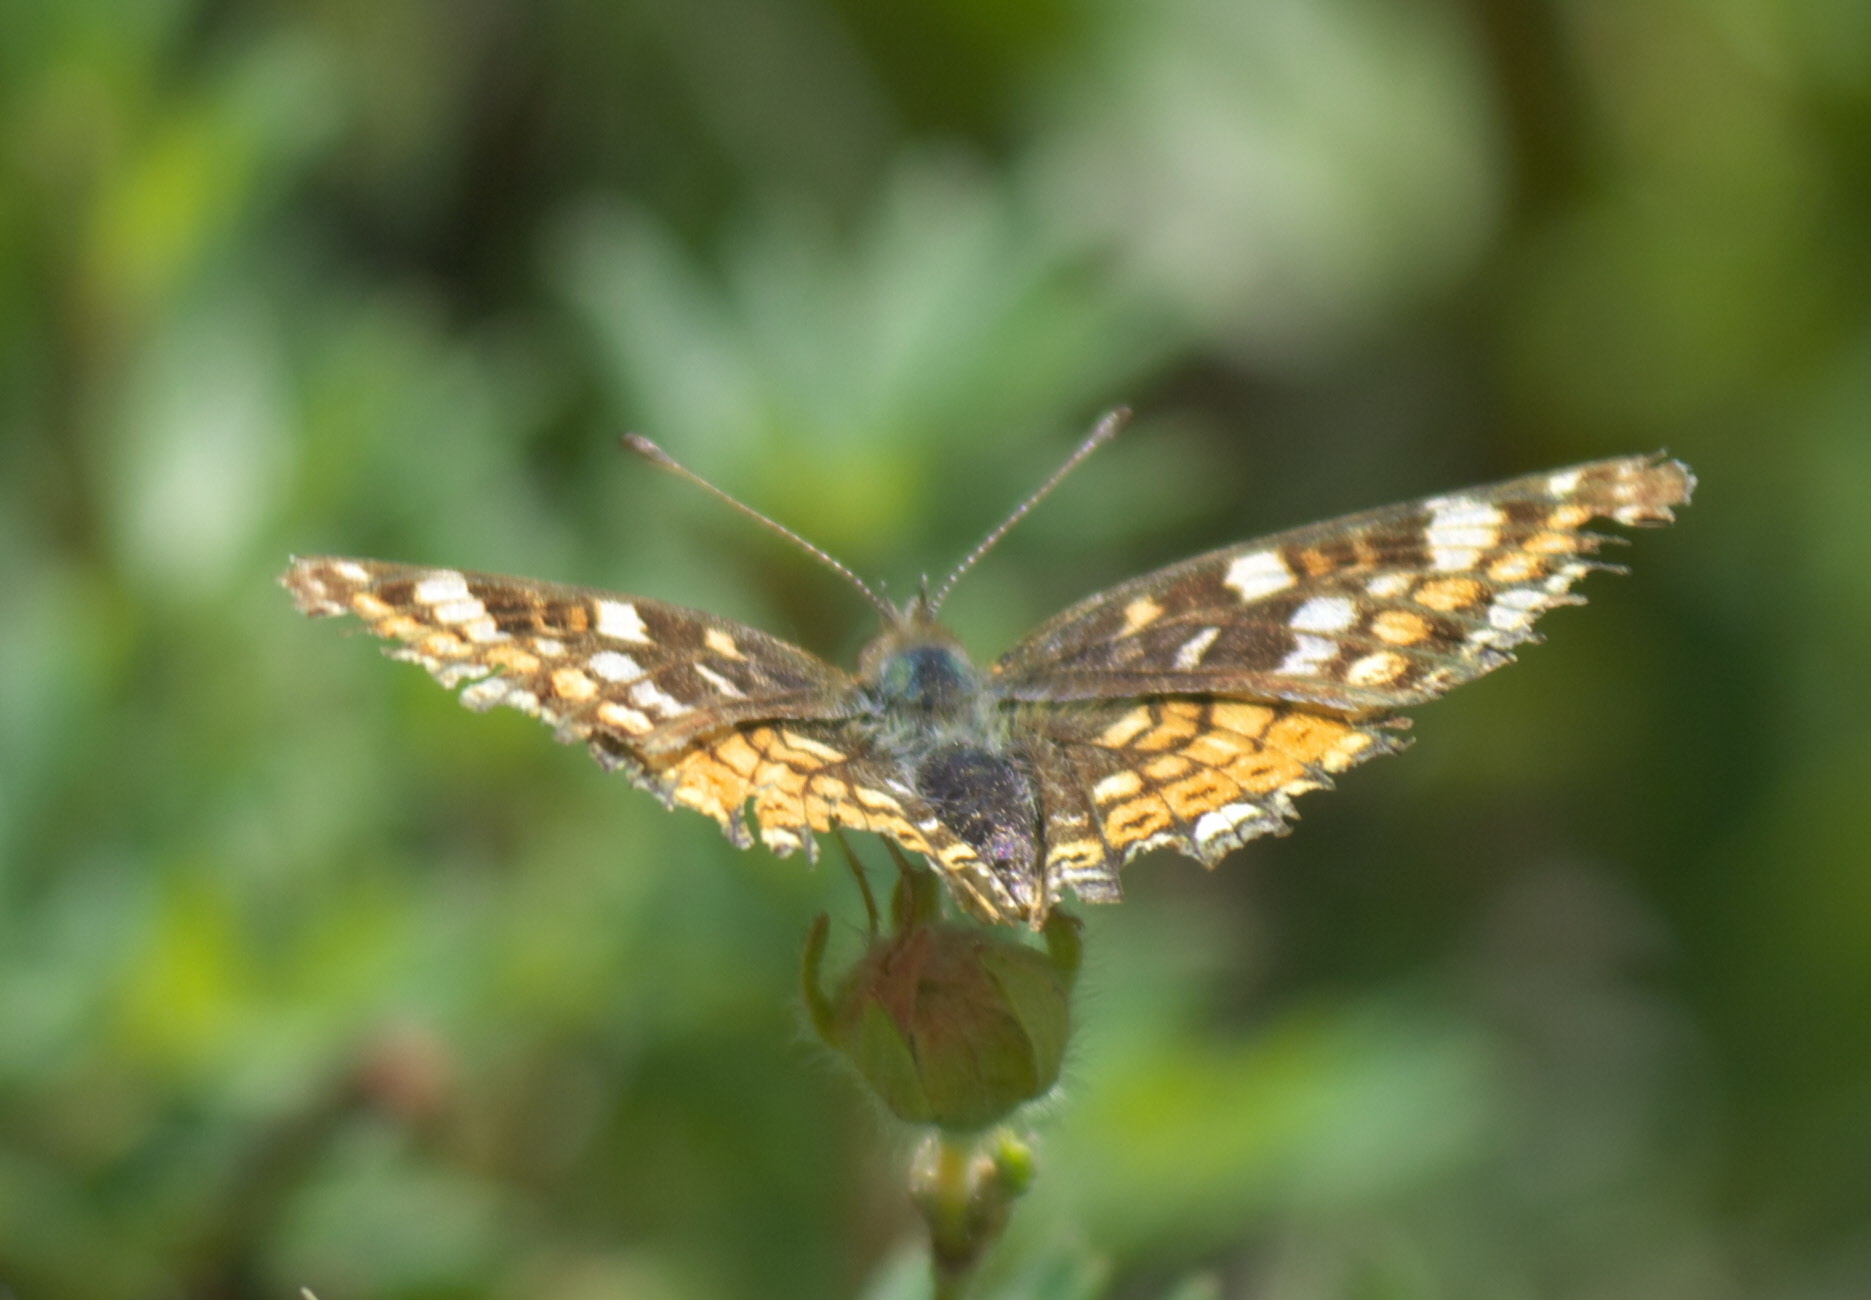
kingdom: Animalia
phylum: Arthropoda
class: Insecta
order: Lepidoptera
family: Nymphalidae
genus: Phyciodes
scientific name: Phyciodes tharos
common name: Pearl crescent
